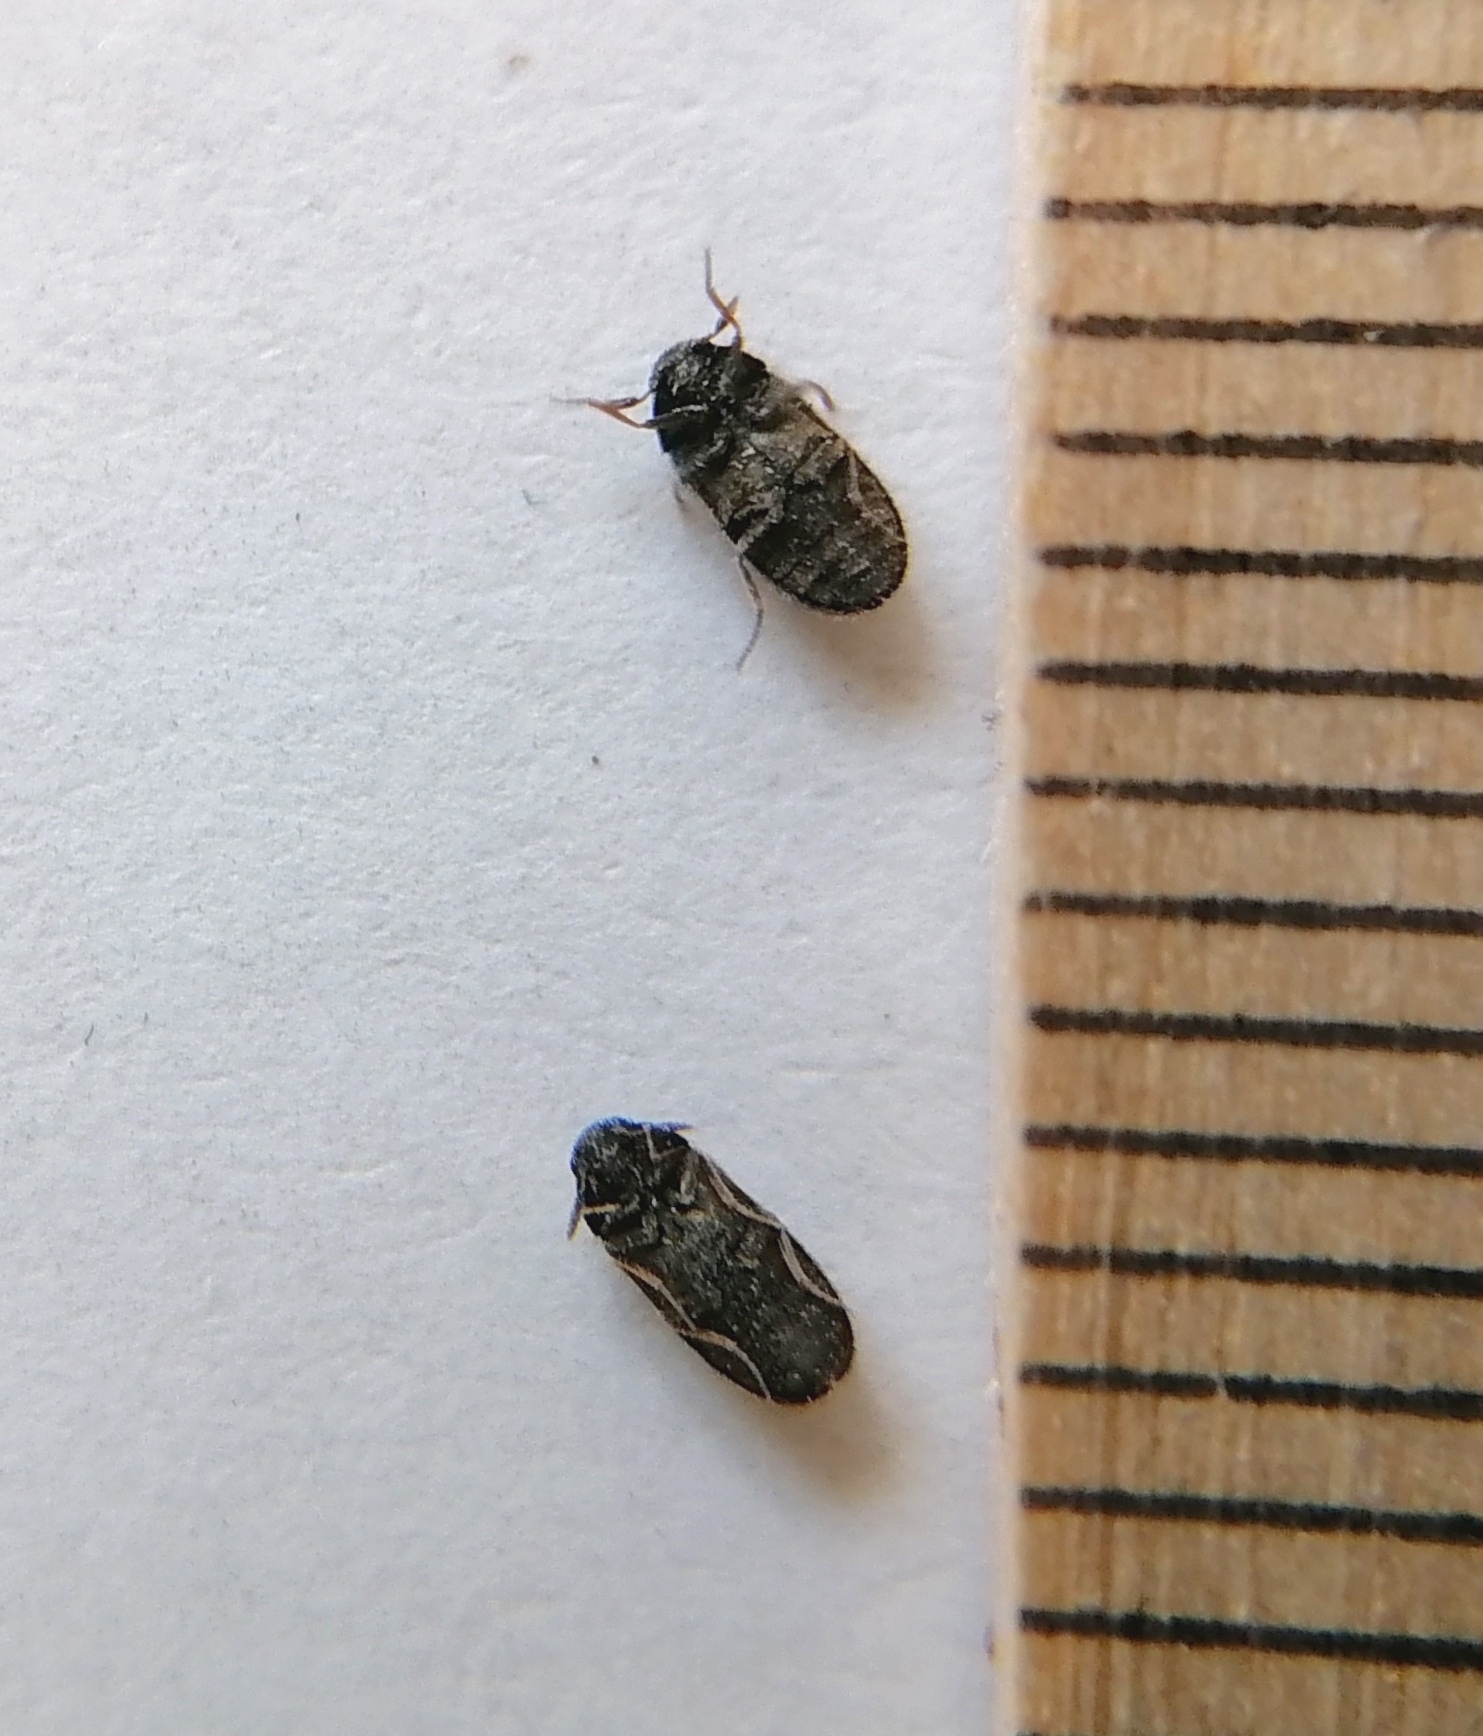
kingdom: Animalia
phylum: Arthropoda
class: Insecta
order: Coleoptera
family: Dermestidae
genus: Megatoma
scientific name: Megatoma tianschanica
